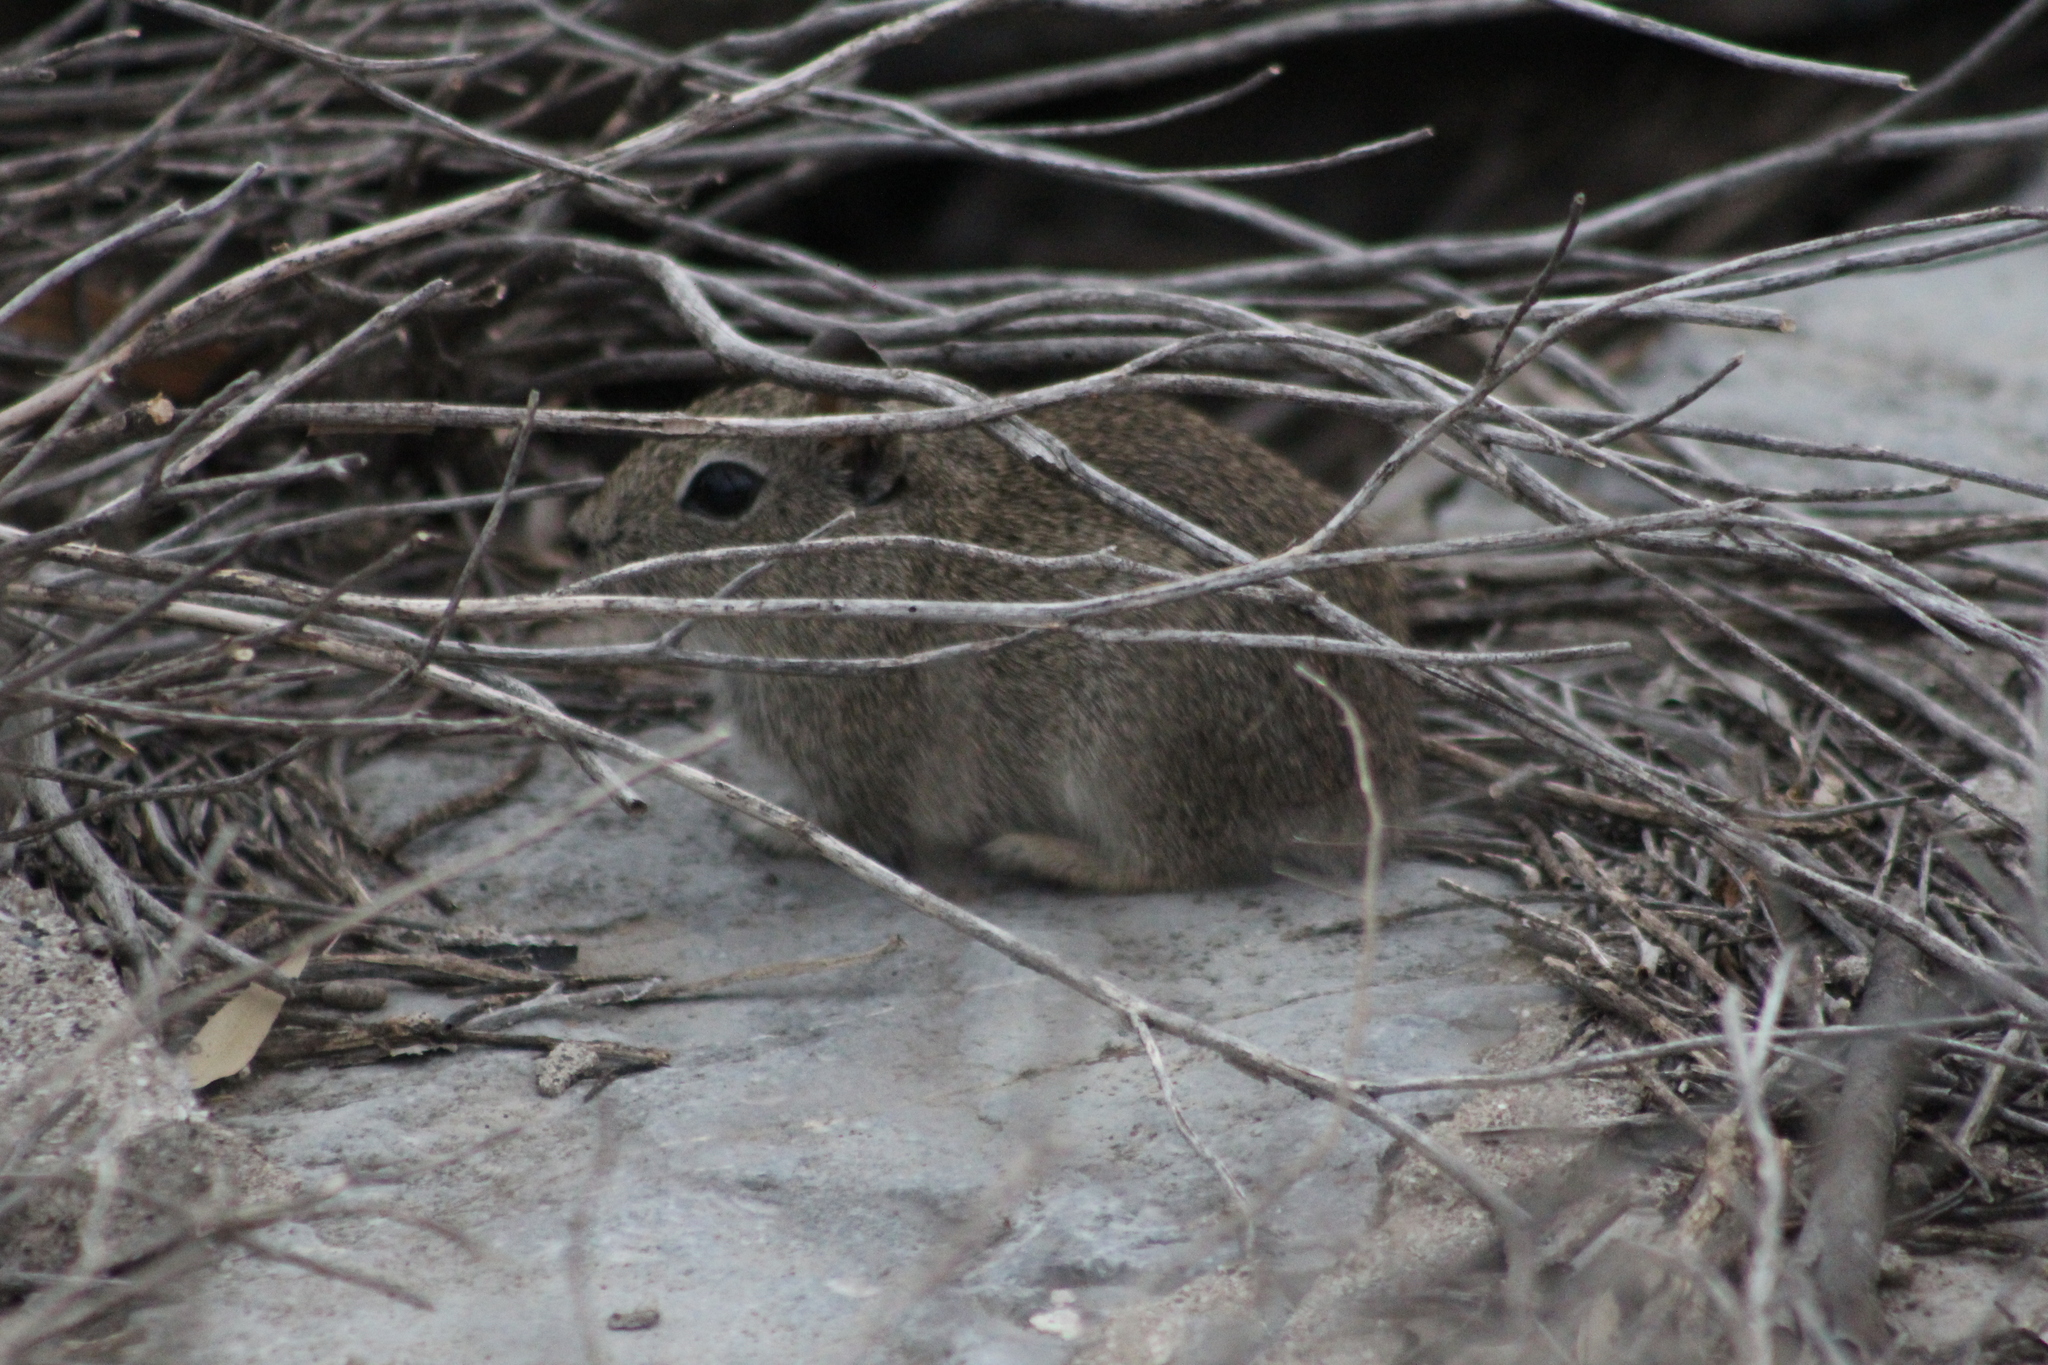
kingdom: Animalia
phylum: Chordata
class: Mammalia
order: Rodentia
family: Caviidae
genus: Microcavia
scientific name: Microcavia australis
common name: Southern mountain cavy
